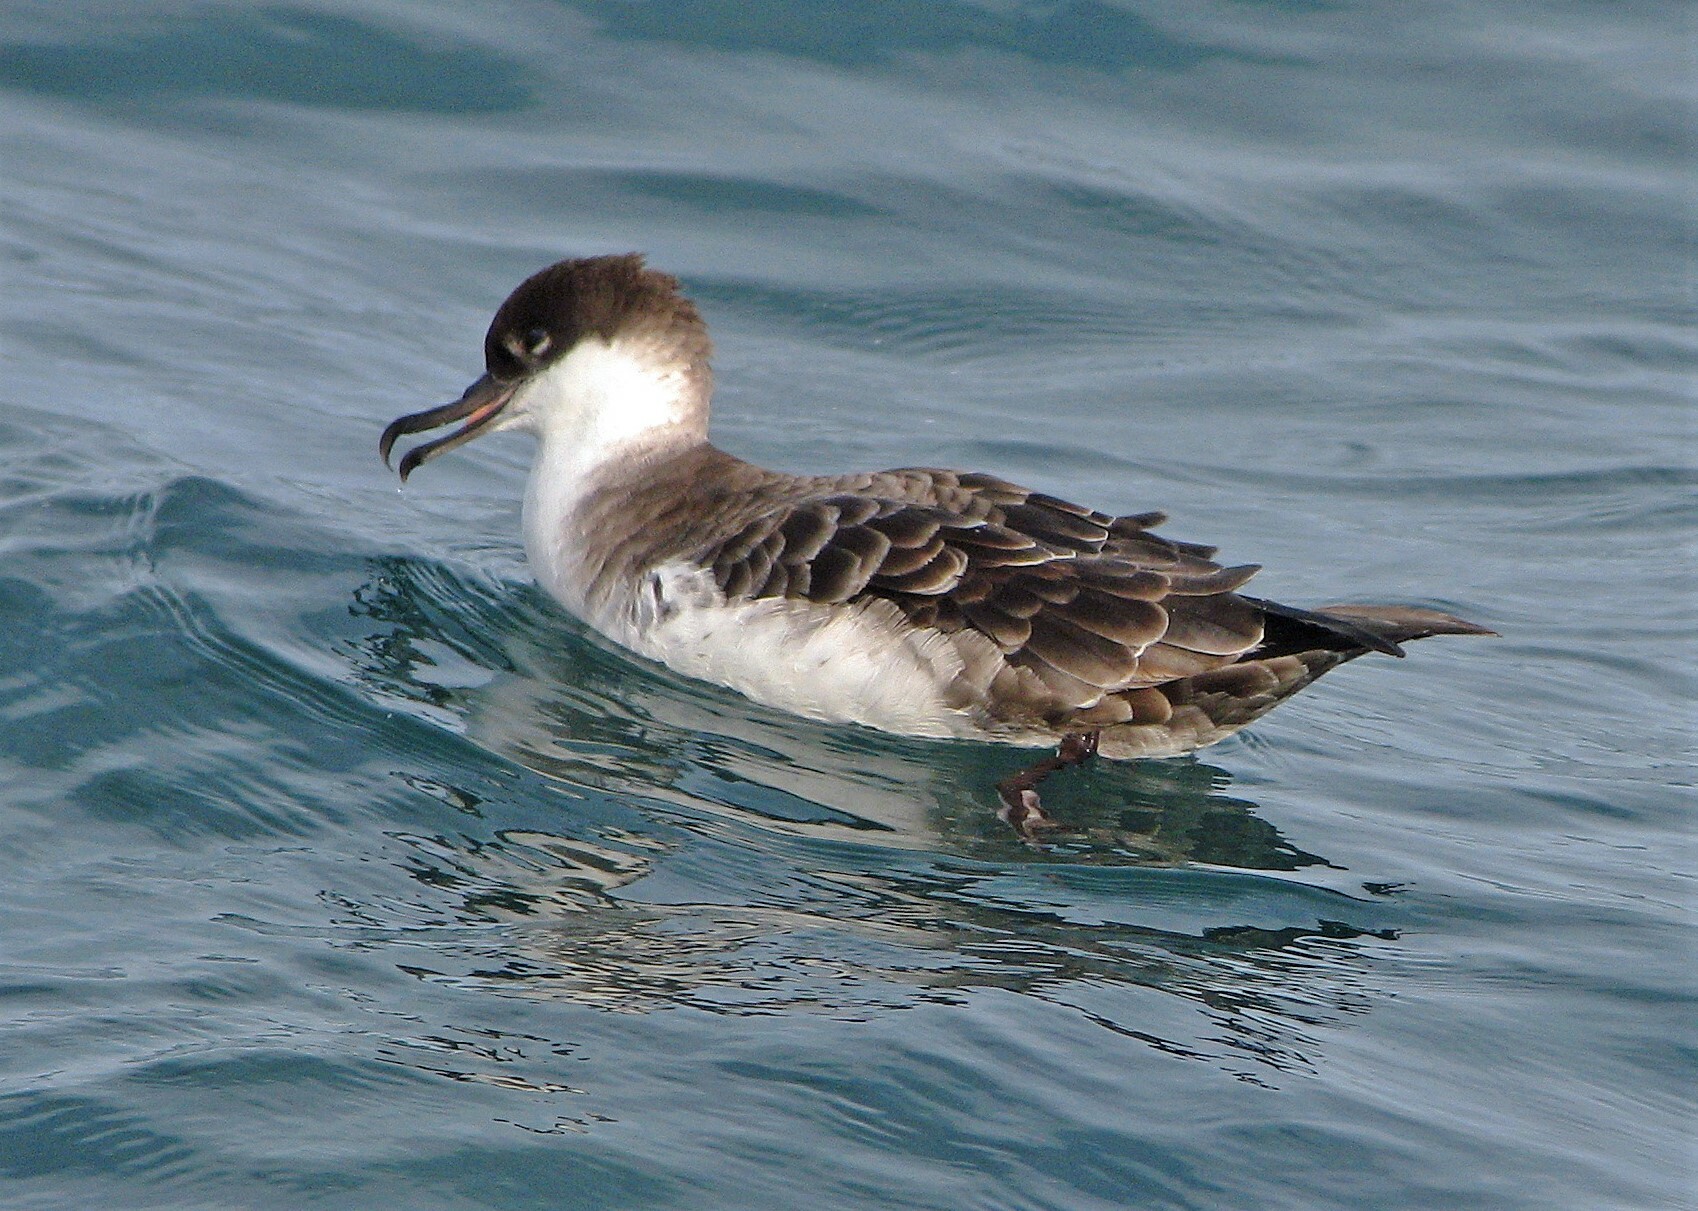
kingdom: Animalia
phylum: Chordata
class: Aves
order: Procellariiformes
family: Procellariidae
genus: Puffinus
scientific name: Puffinus gravis
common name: Great shearwater
